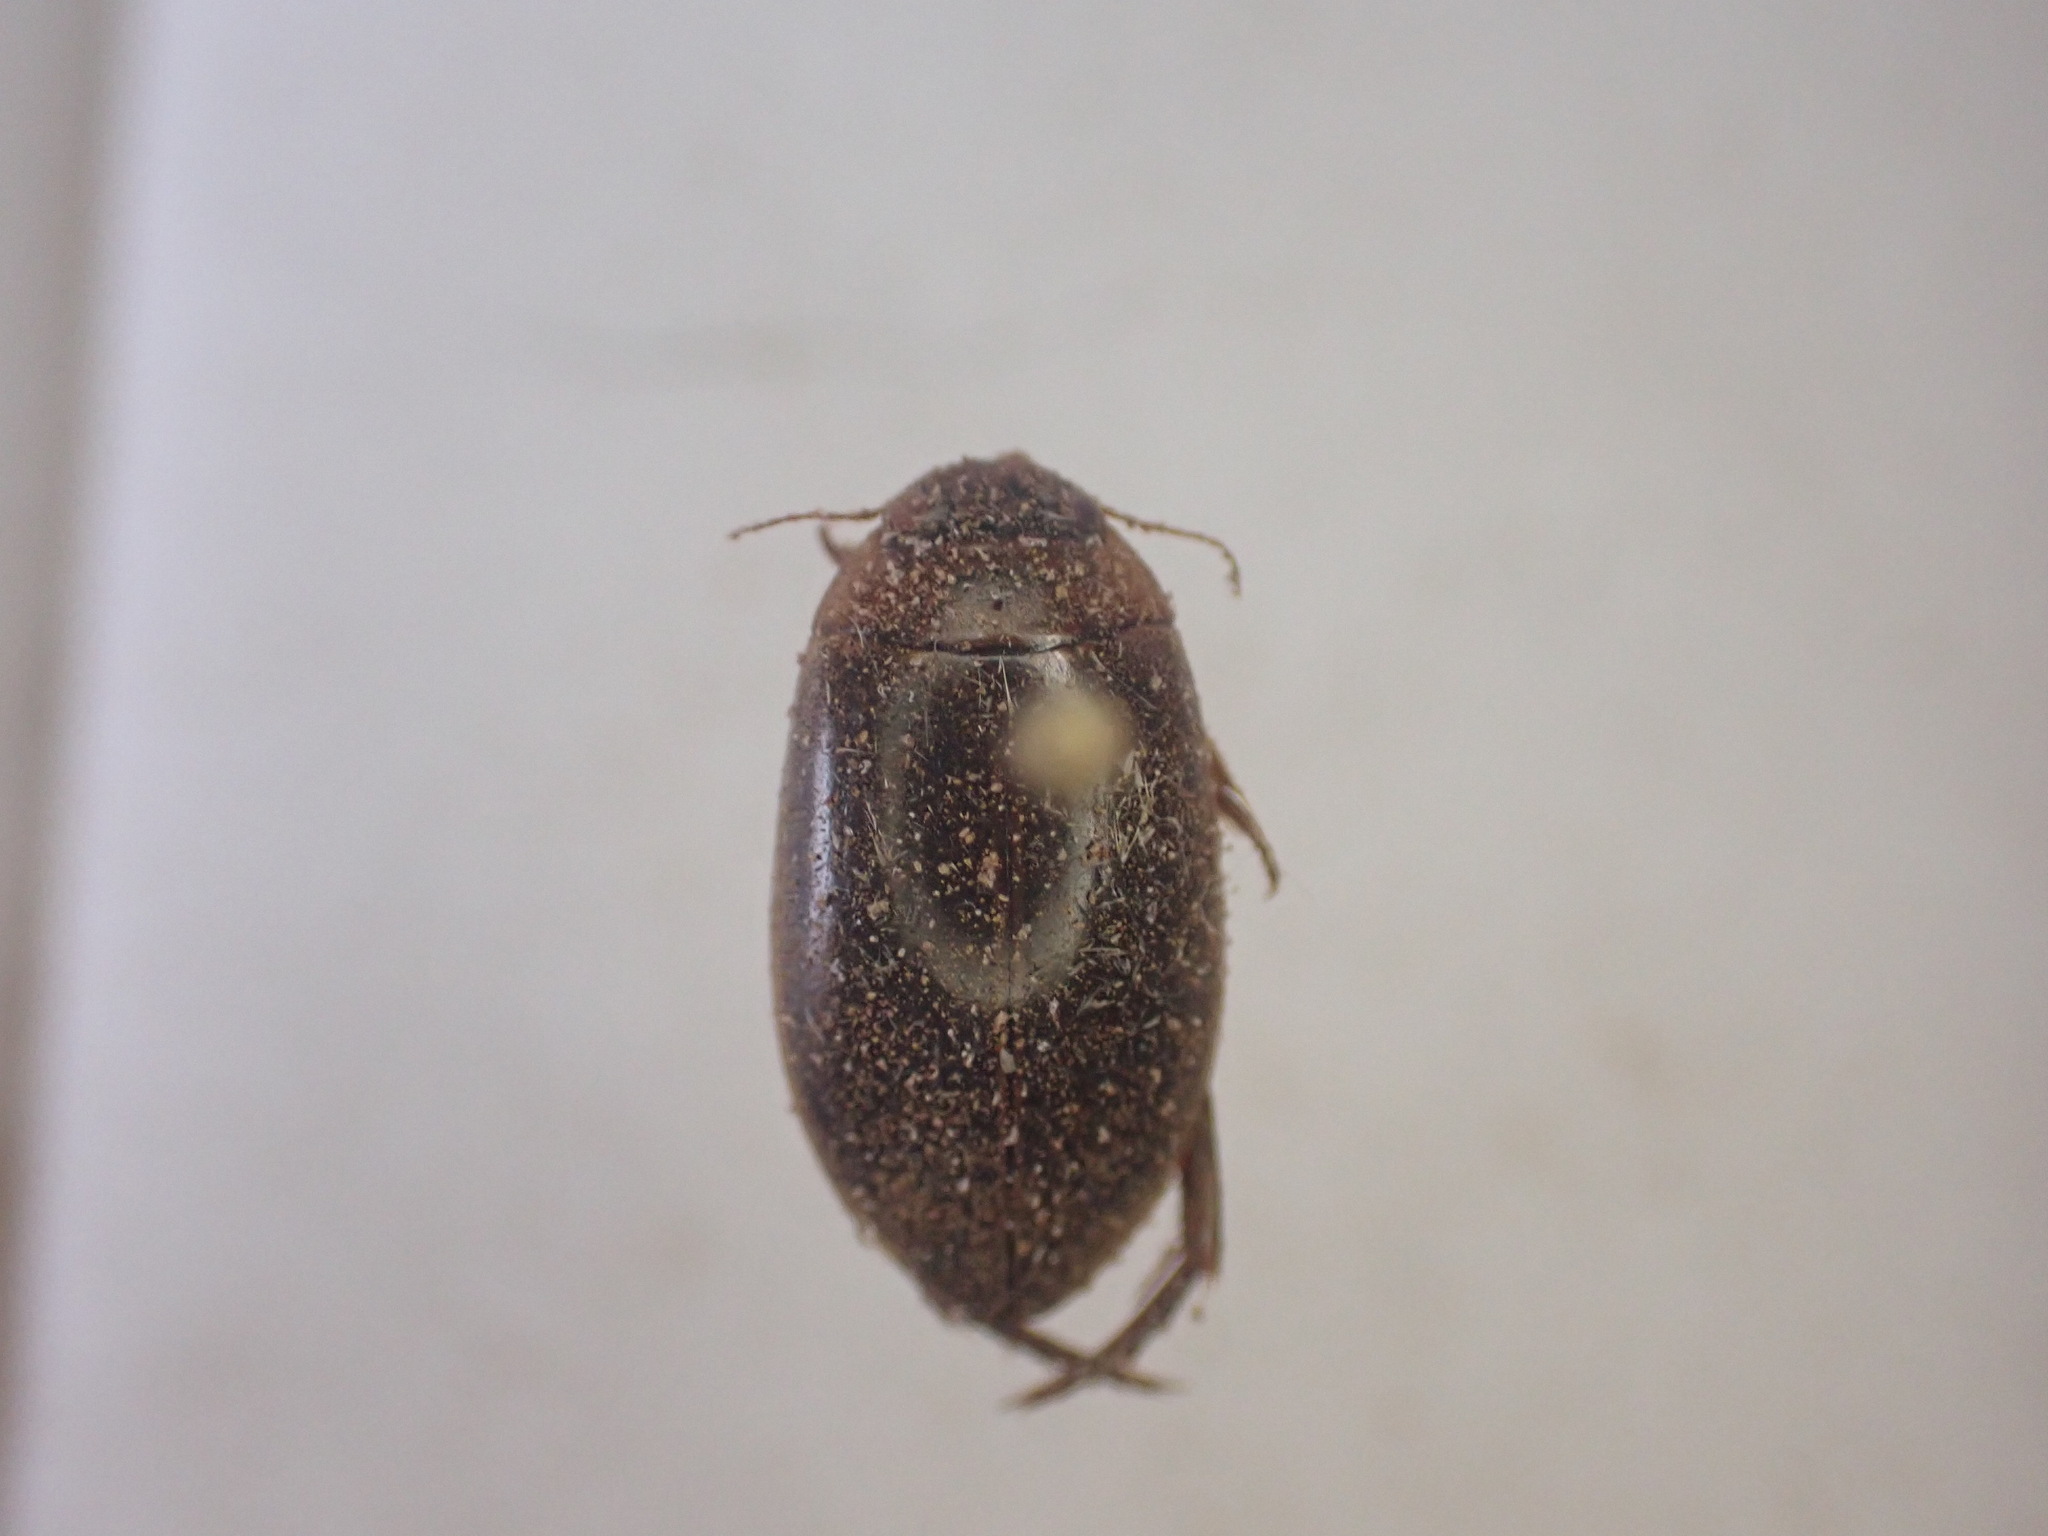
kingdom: Animalia
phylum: Arthropoda
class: Insecta
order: Coleoptera
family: Dytiscidae
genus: Rhantus
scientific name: Rhantus suturalis
